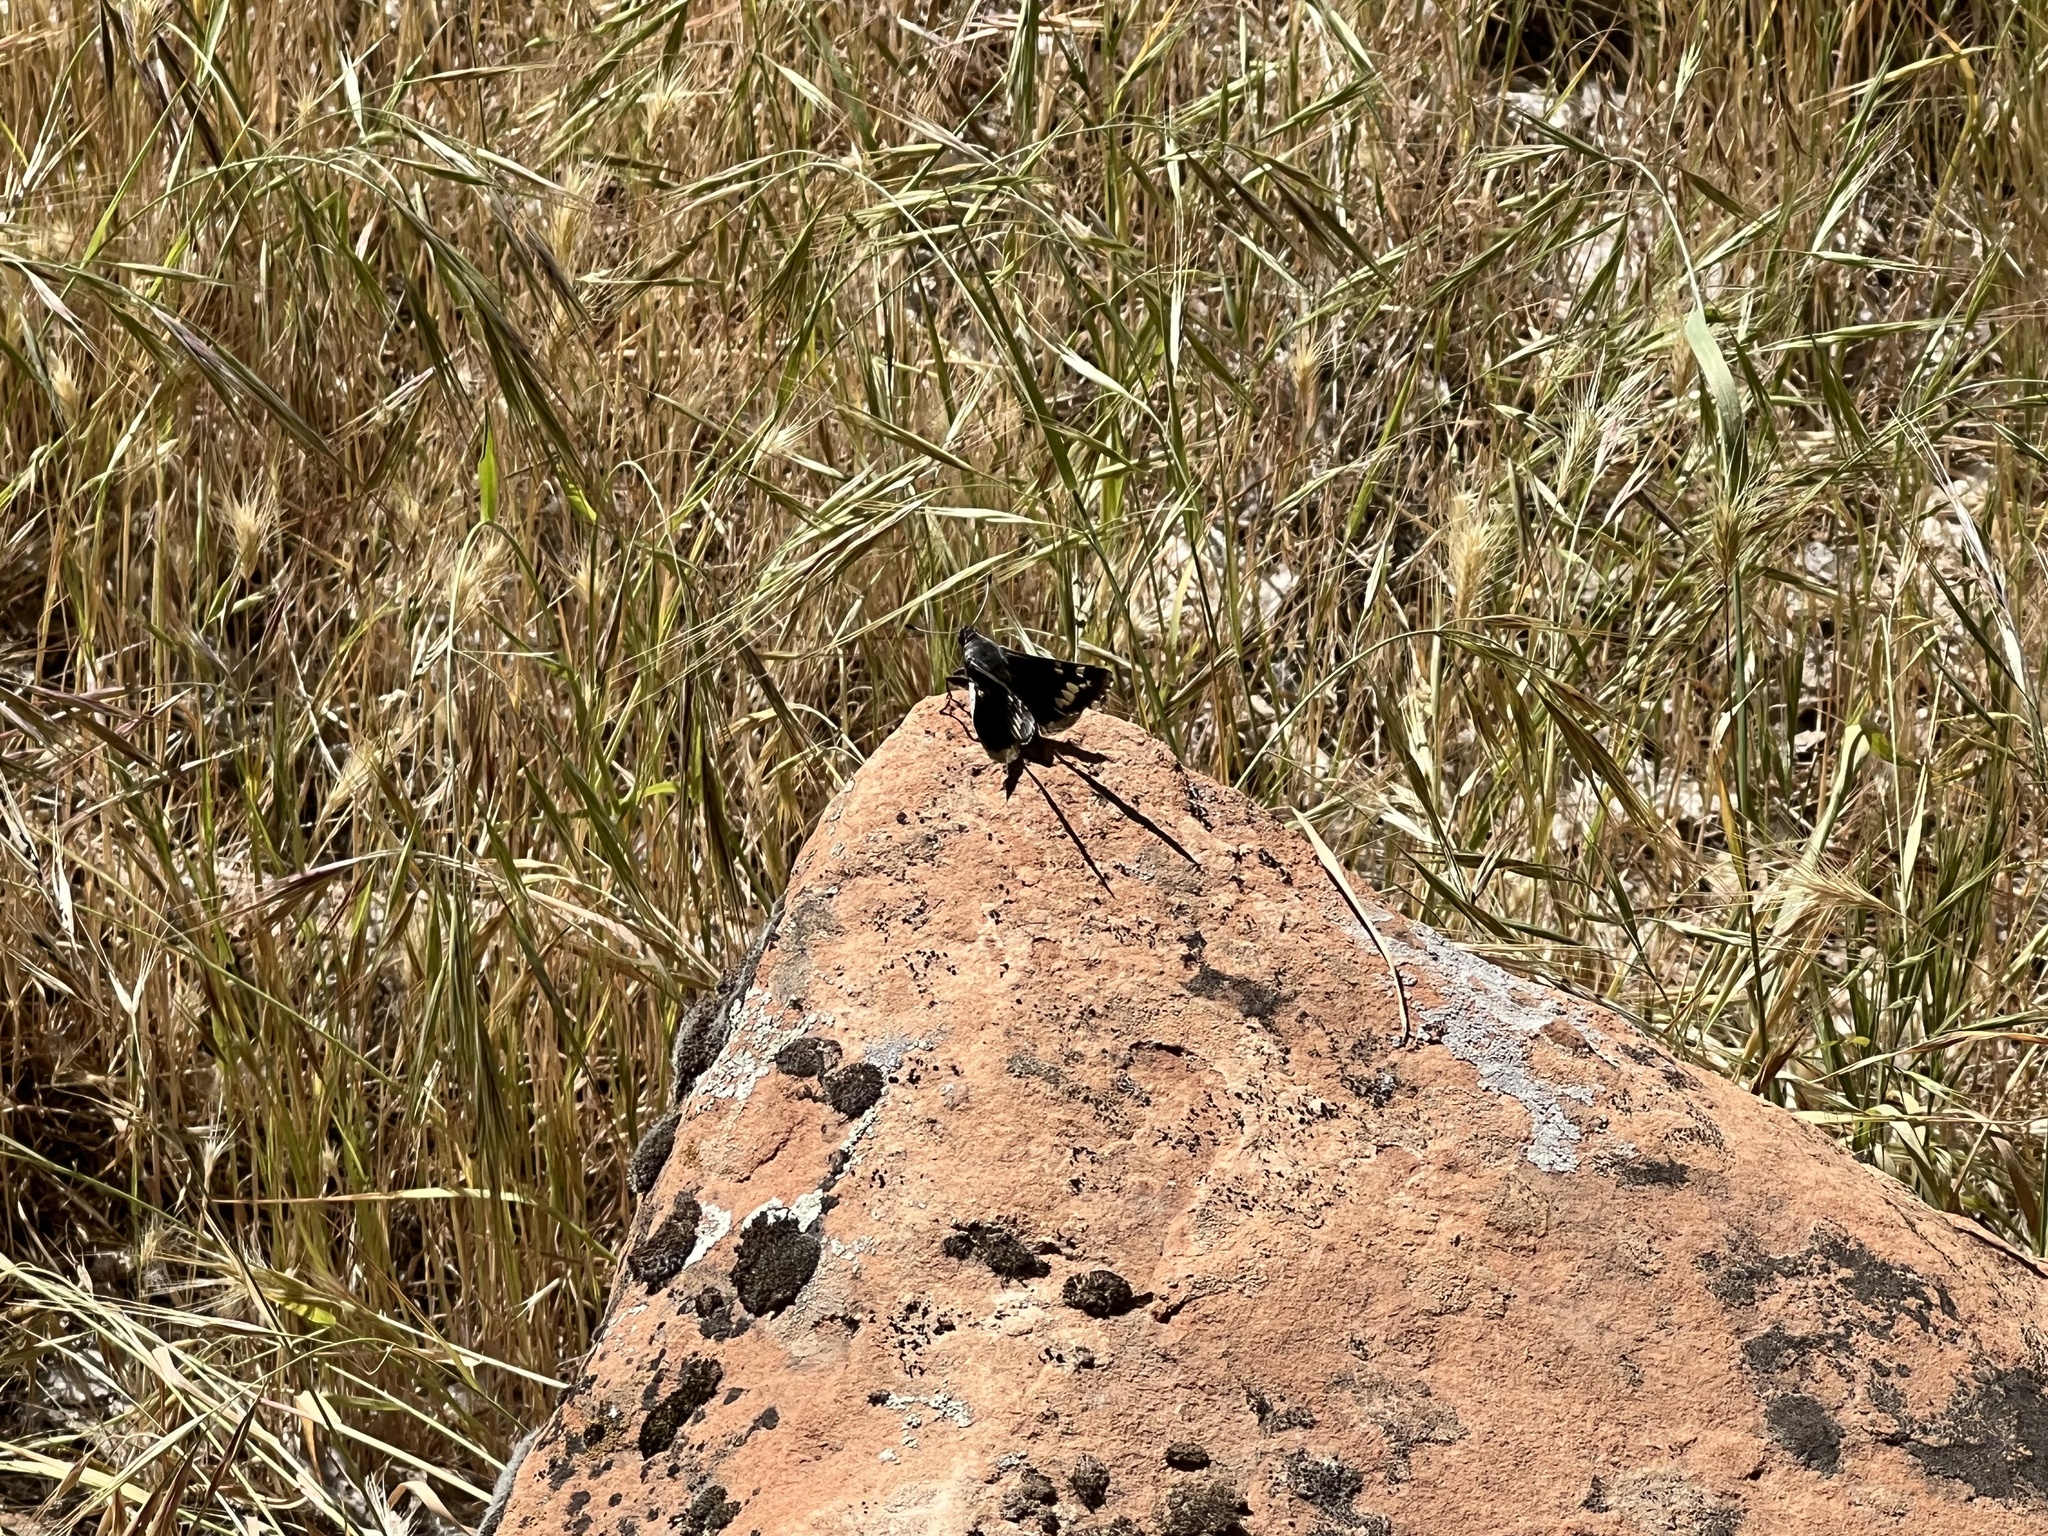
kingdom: Animalia
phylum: Arthropoda
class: Insecta
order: Lepidoptera
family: Hesperiidae
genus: Megathymus
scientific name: Megathymus yuccae
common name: Yucca giant-skipper
